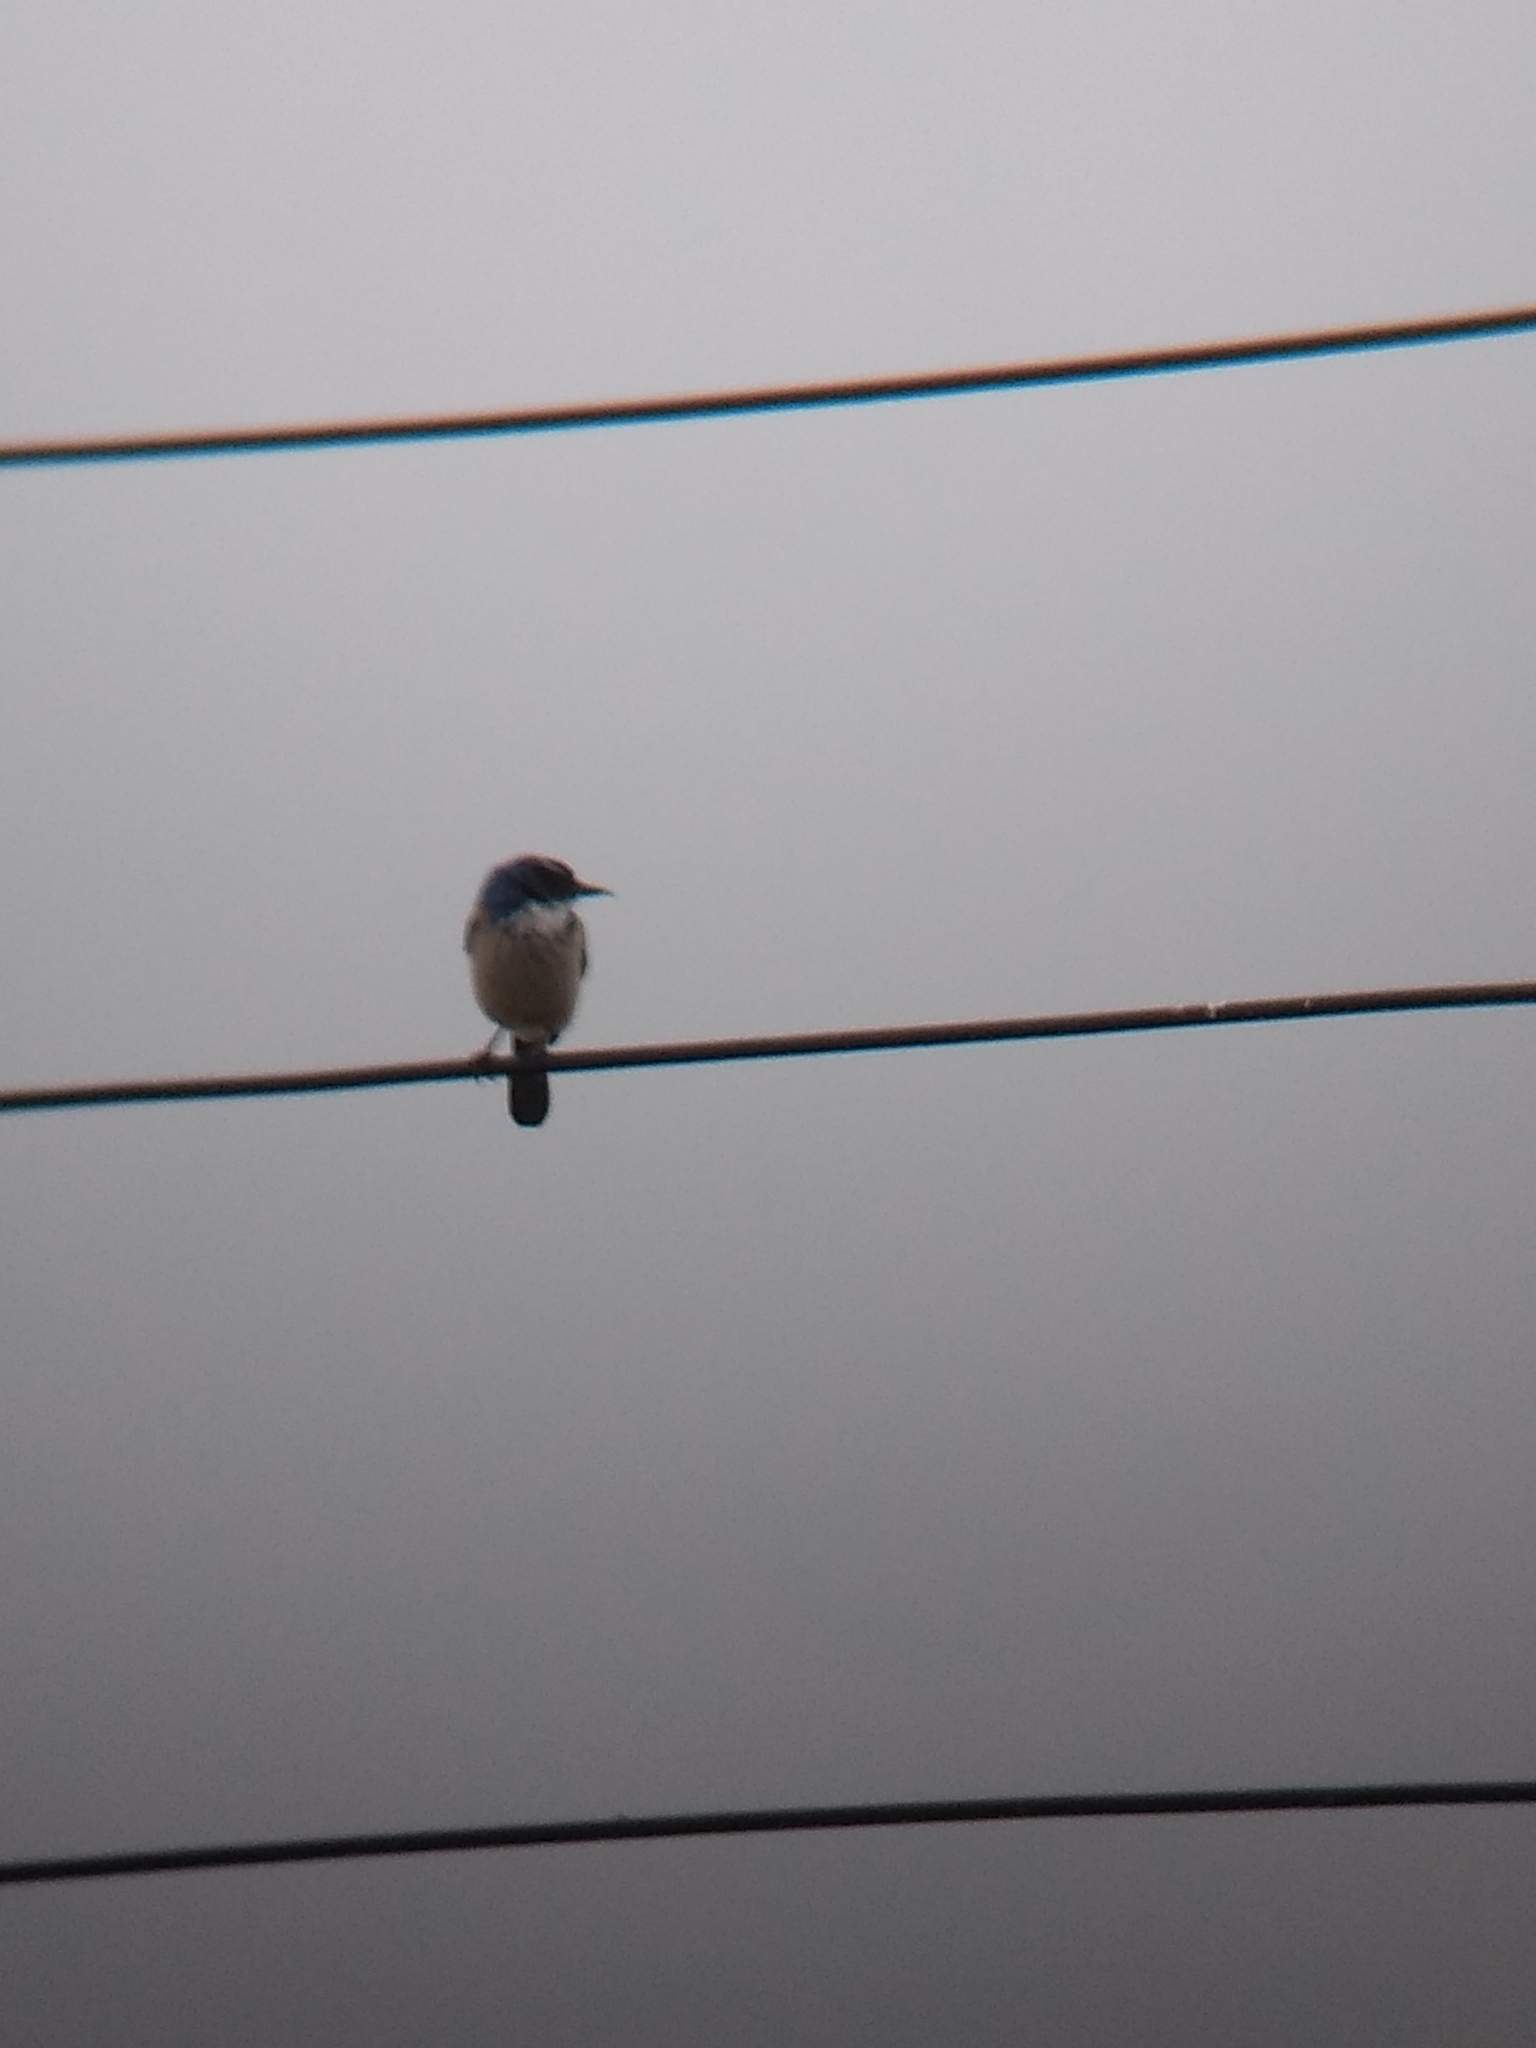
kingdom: Animalia
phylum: Chordata
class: Aves
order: Passeriformes
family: Corvidae
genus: Aphelocoma
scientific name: Aphelocoma californica
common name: California scrub-jay
